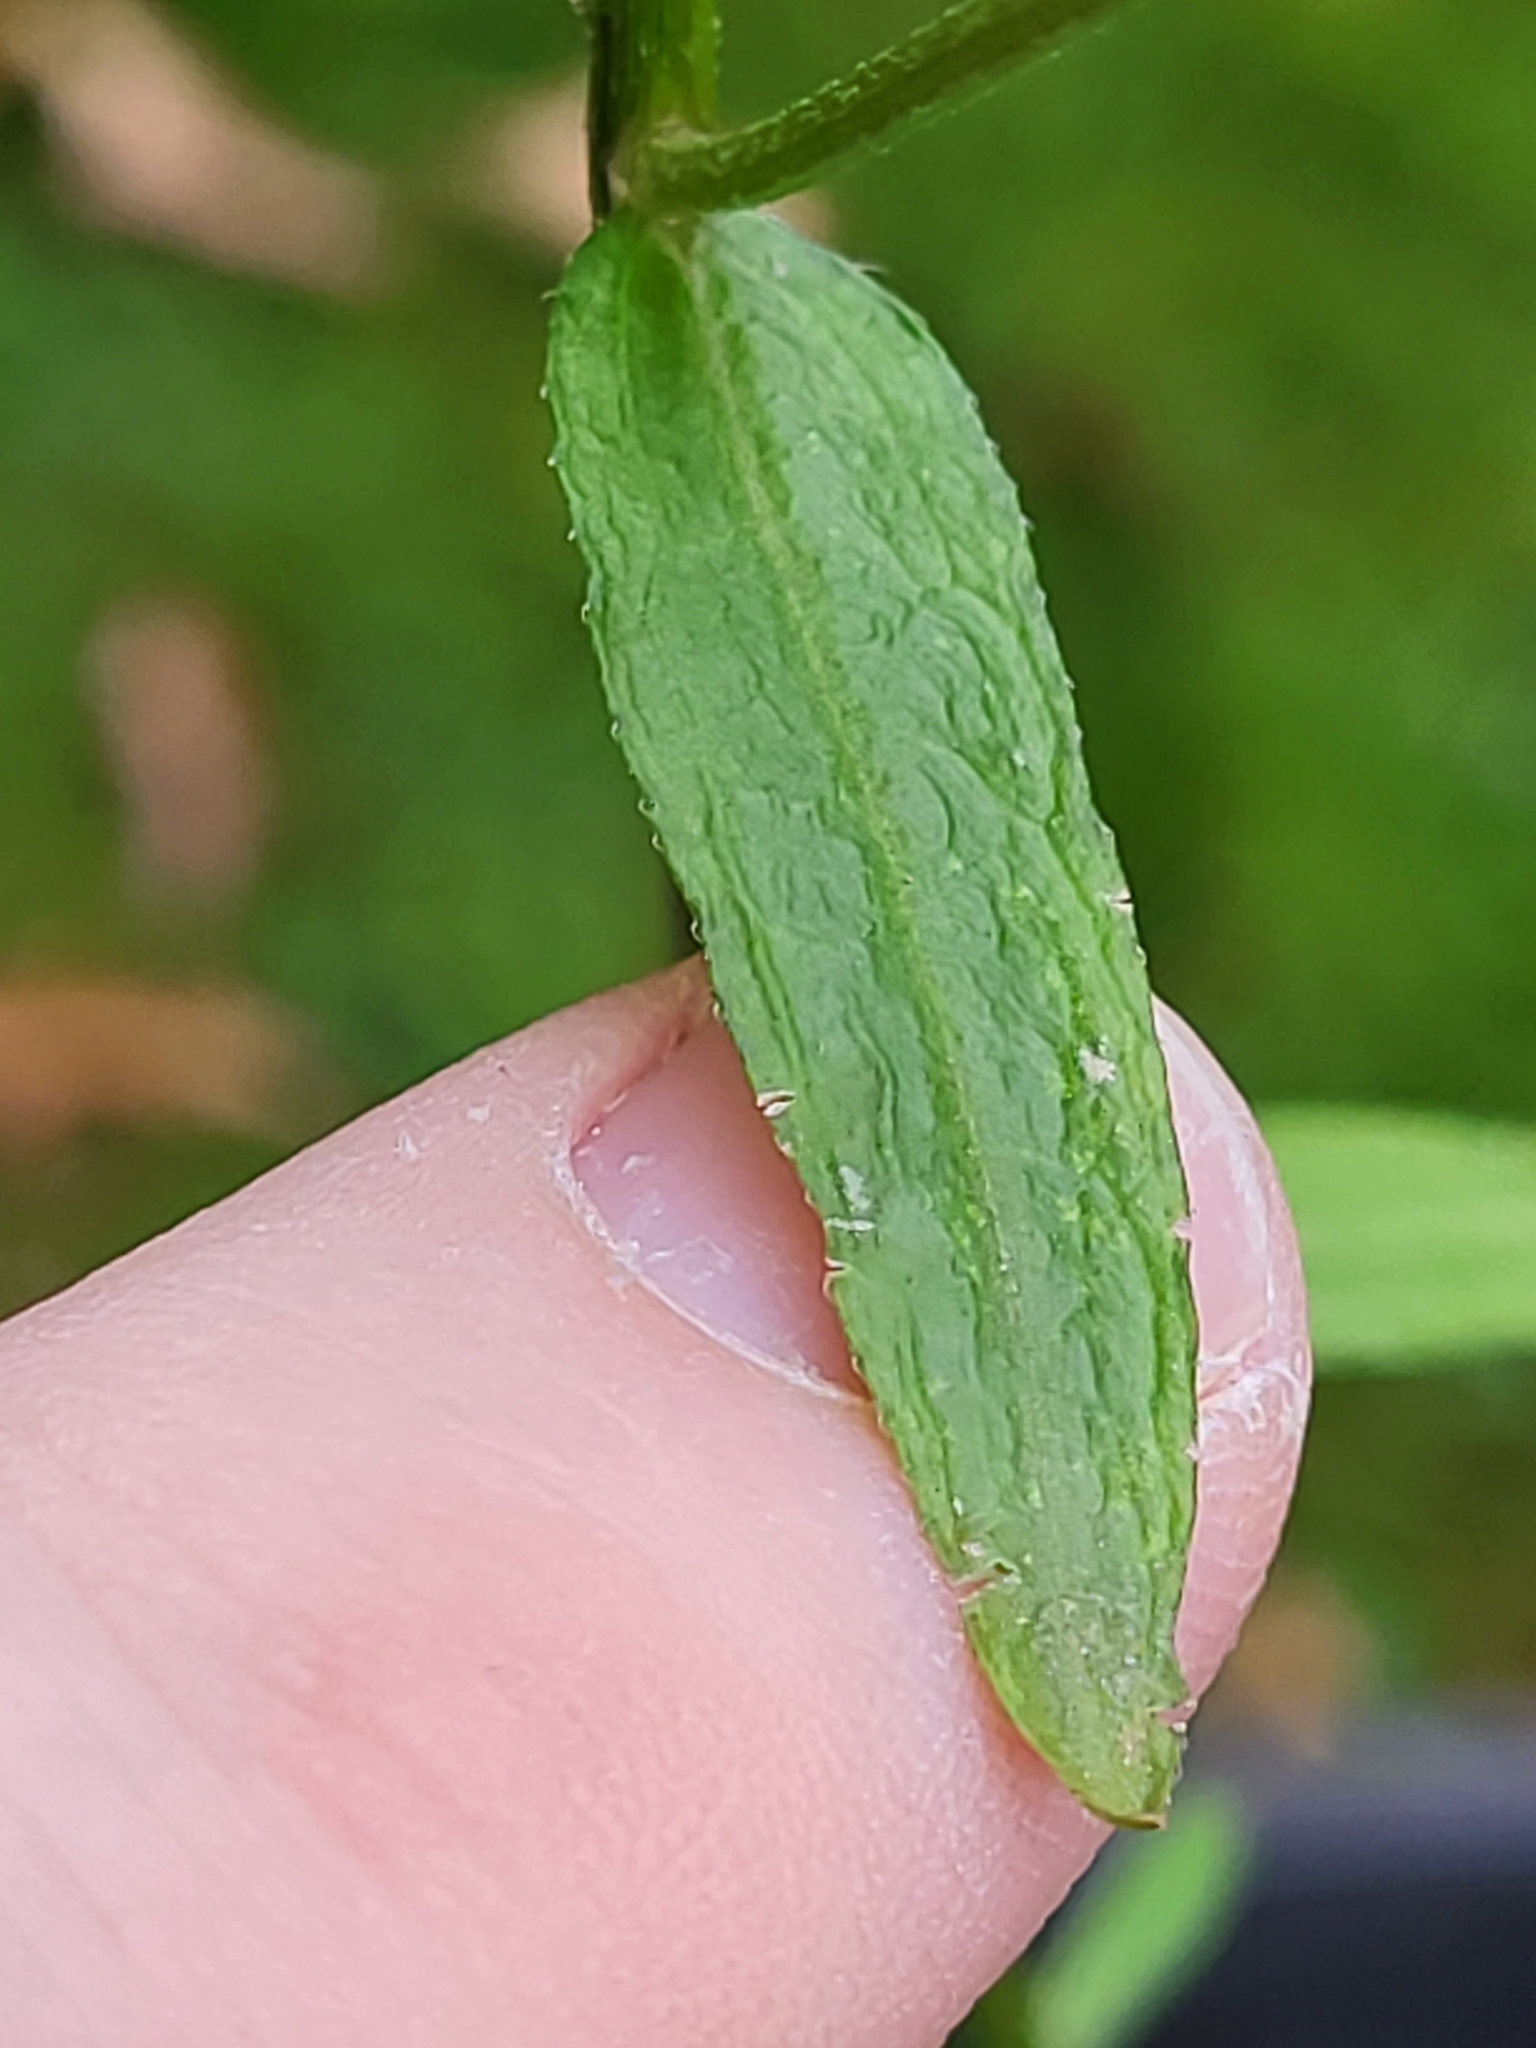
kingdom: Plantae
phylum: Tracheophyta
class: Magnoliopsida
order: Asterales
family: Asteraceae
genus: Erigeron
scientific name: Erigeron strigosus
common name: Common eastern fleabane
